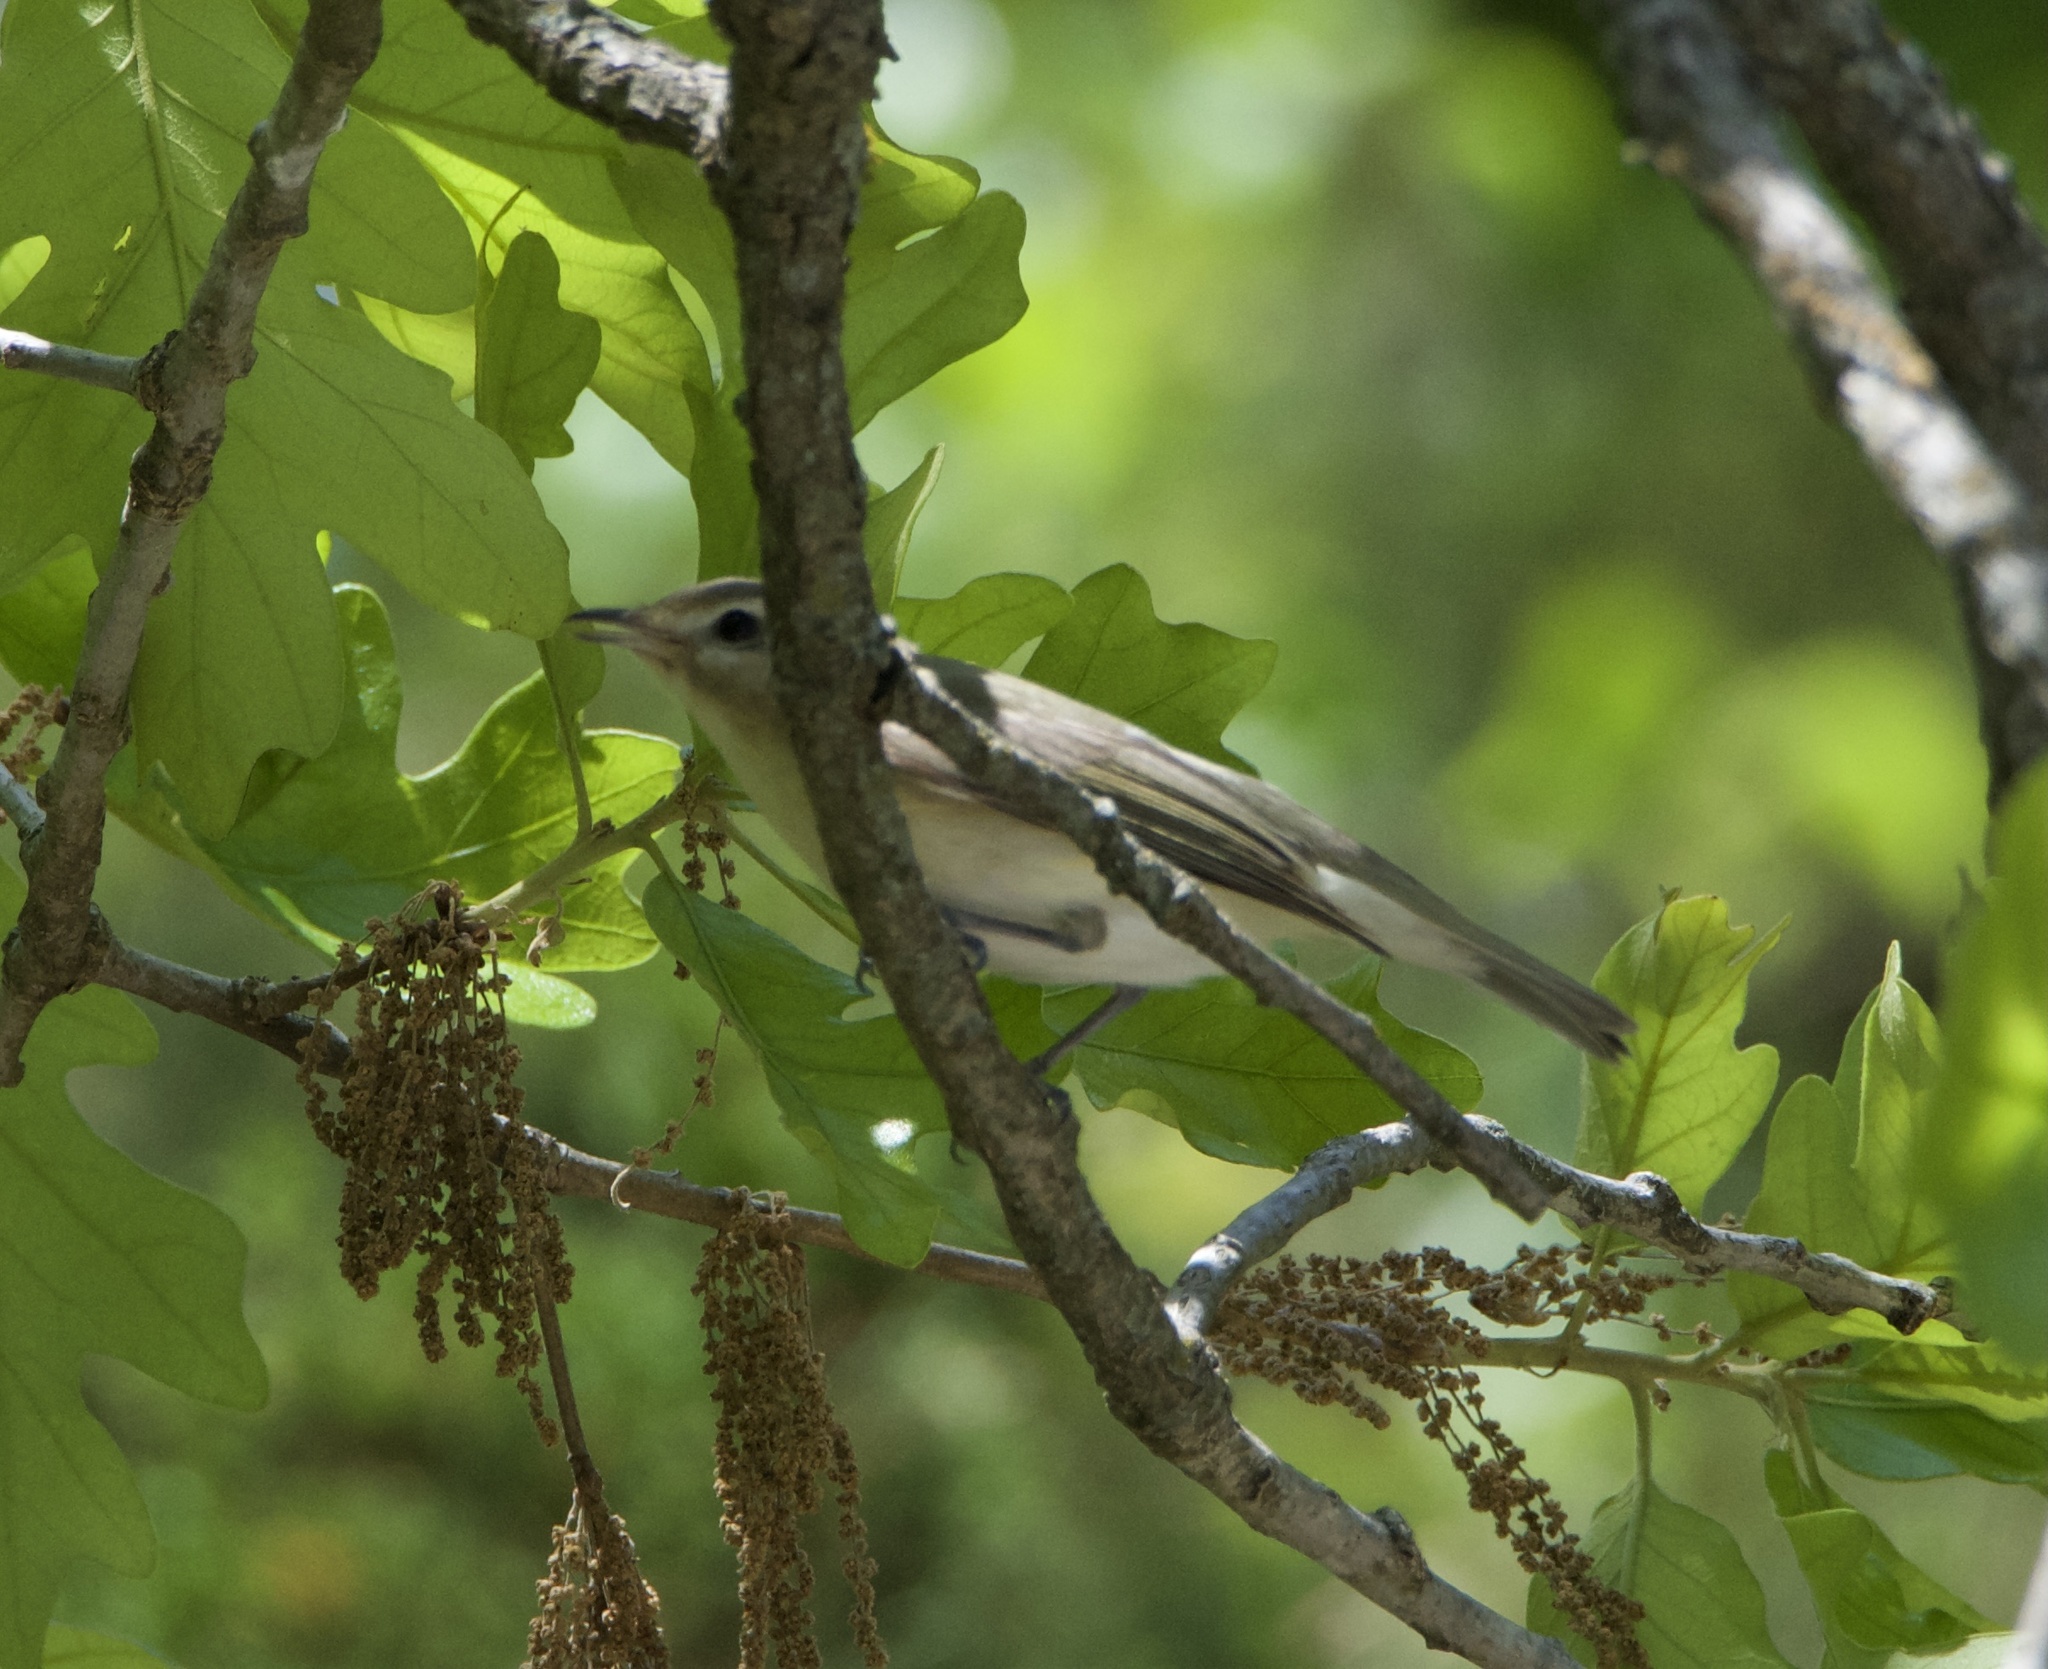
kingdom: Animalia
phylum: Chordata
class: Aves
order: Passeriformes
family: Vireonidae
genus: Vireo
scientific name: Vireo gilvus
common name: Warbling vireo
